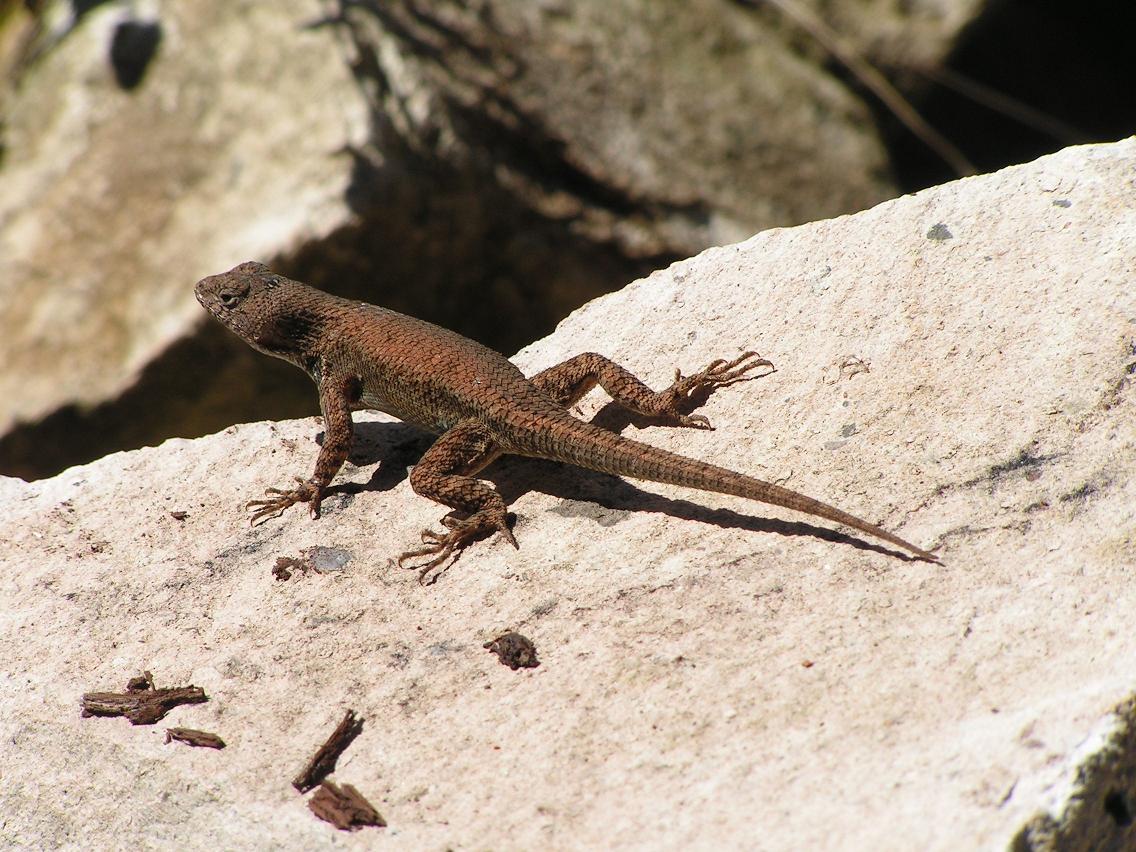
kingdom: Animalia
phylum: Chordata
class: Squamata
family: Phrynosomatidae
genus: Sceloporus
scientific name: Sceloporus nelsoni
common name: Nelson's spiny lizard
